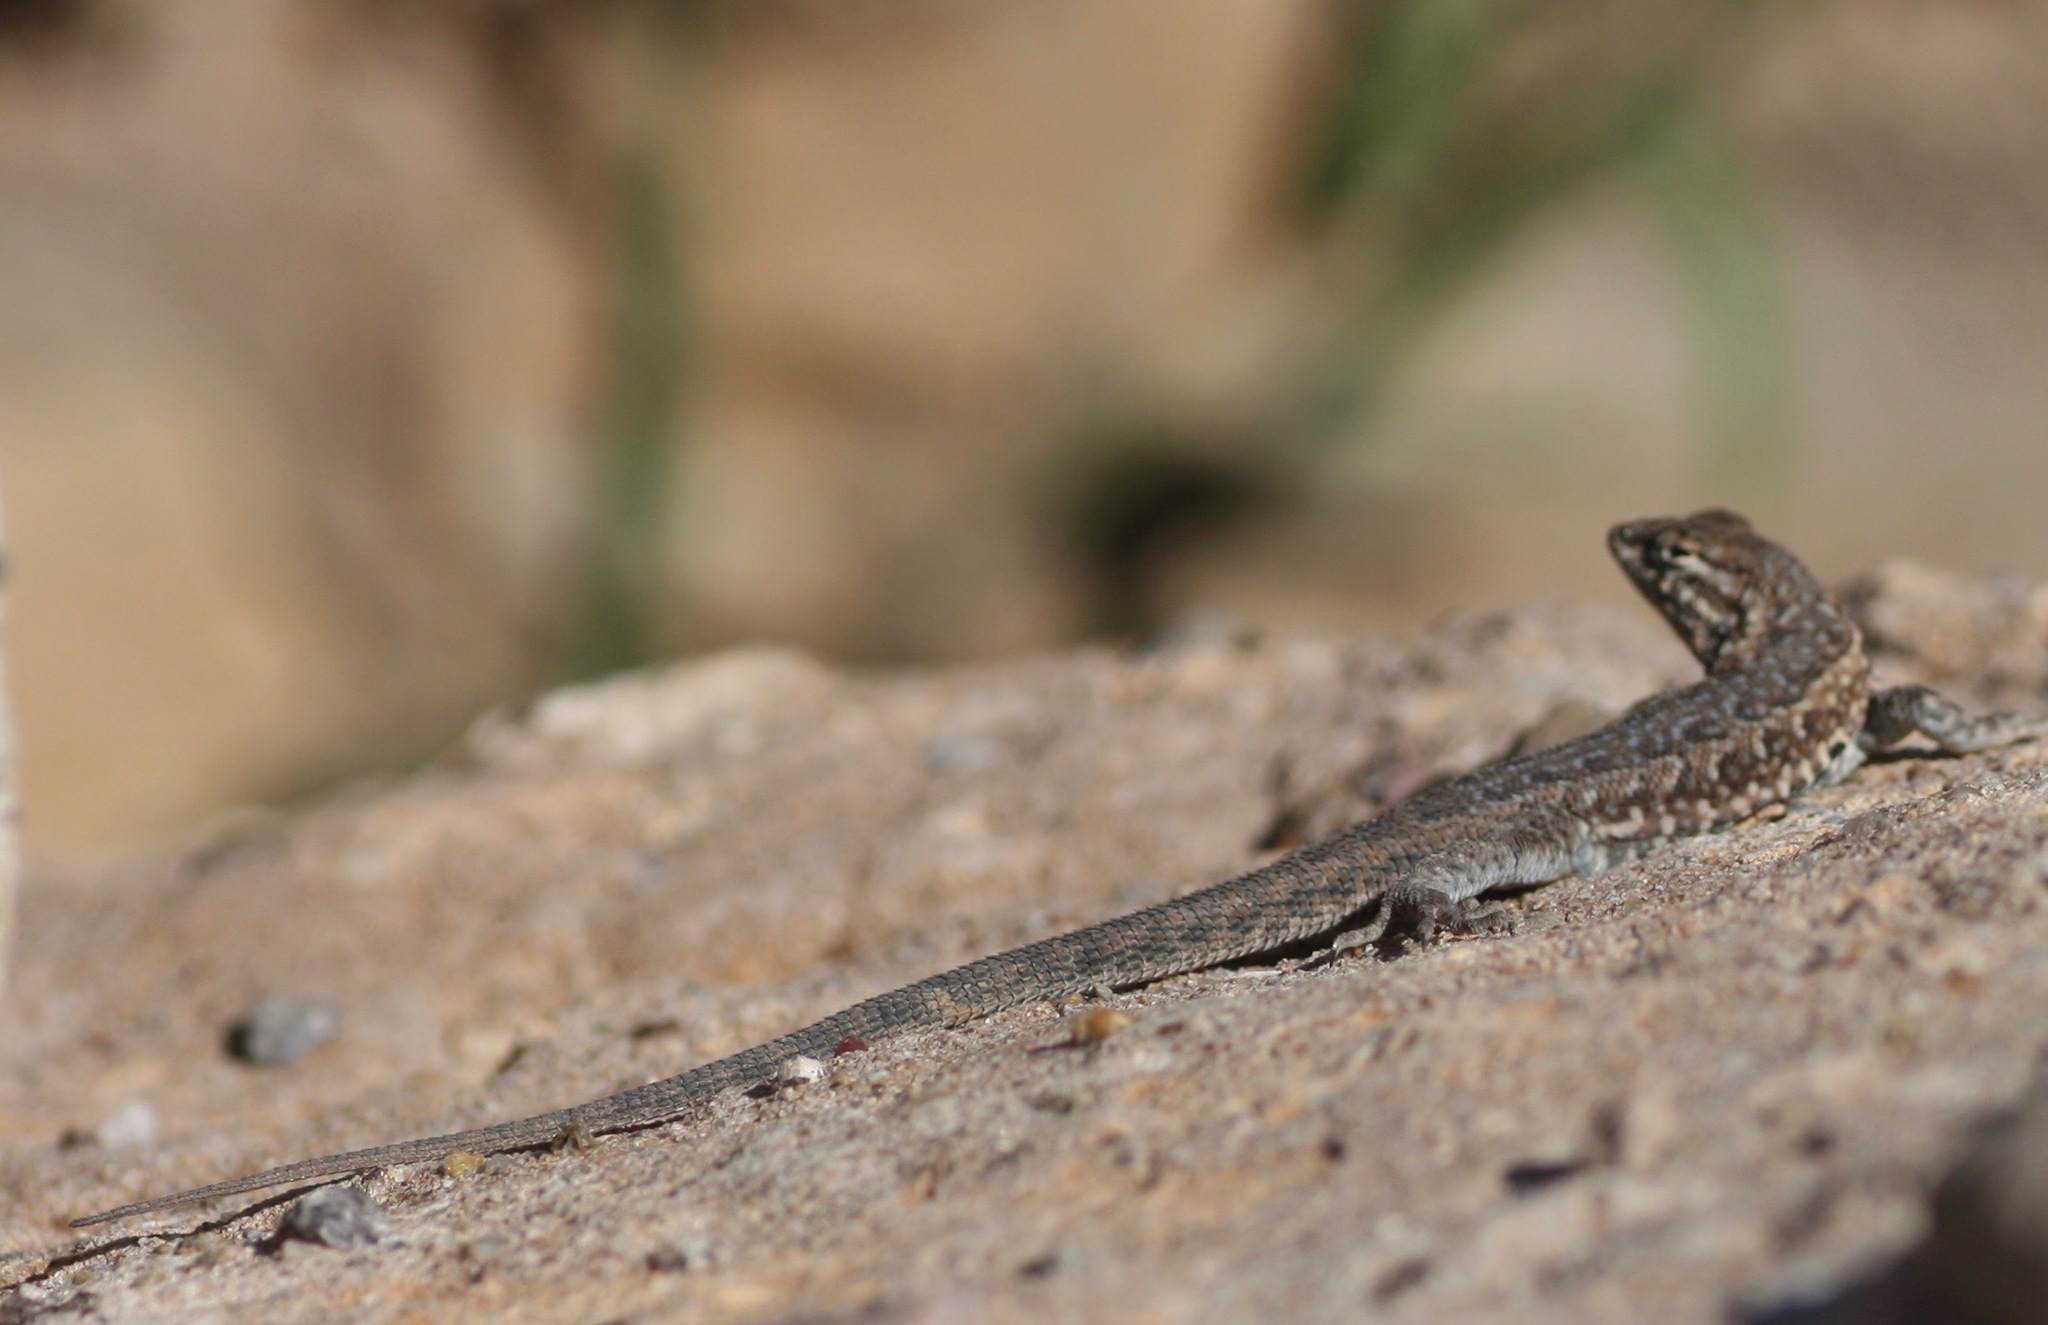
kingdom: Animalia
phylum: Chordata
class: Squamata
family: Phrynosomatidae
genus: Uta
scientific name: Uta stansburiana
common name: Side-blotched lizard
